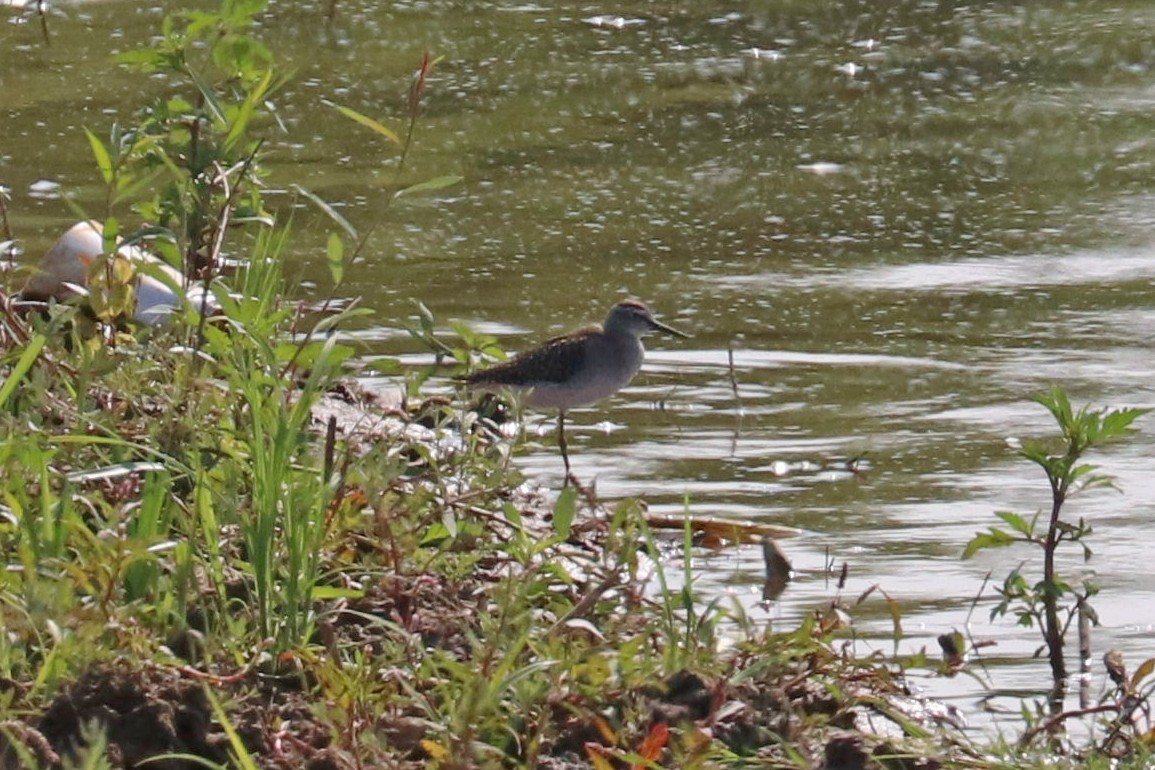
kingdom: Animalia
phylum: Chordata
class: Aves
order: Charadriiformes
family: Scolopacidae
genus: Tringa
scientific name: Tringa glareola
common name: Wood sandpiper
